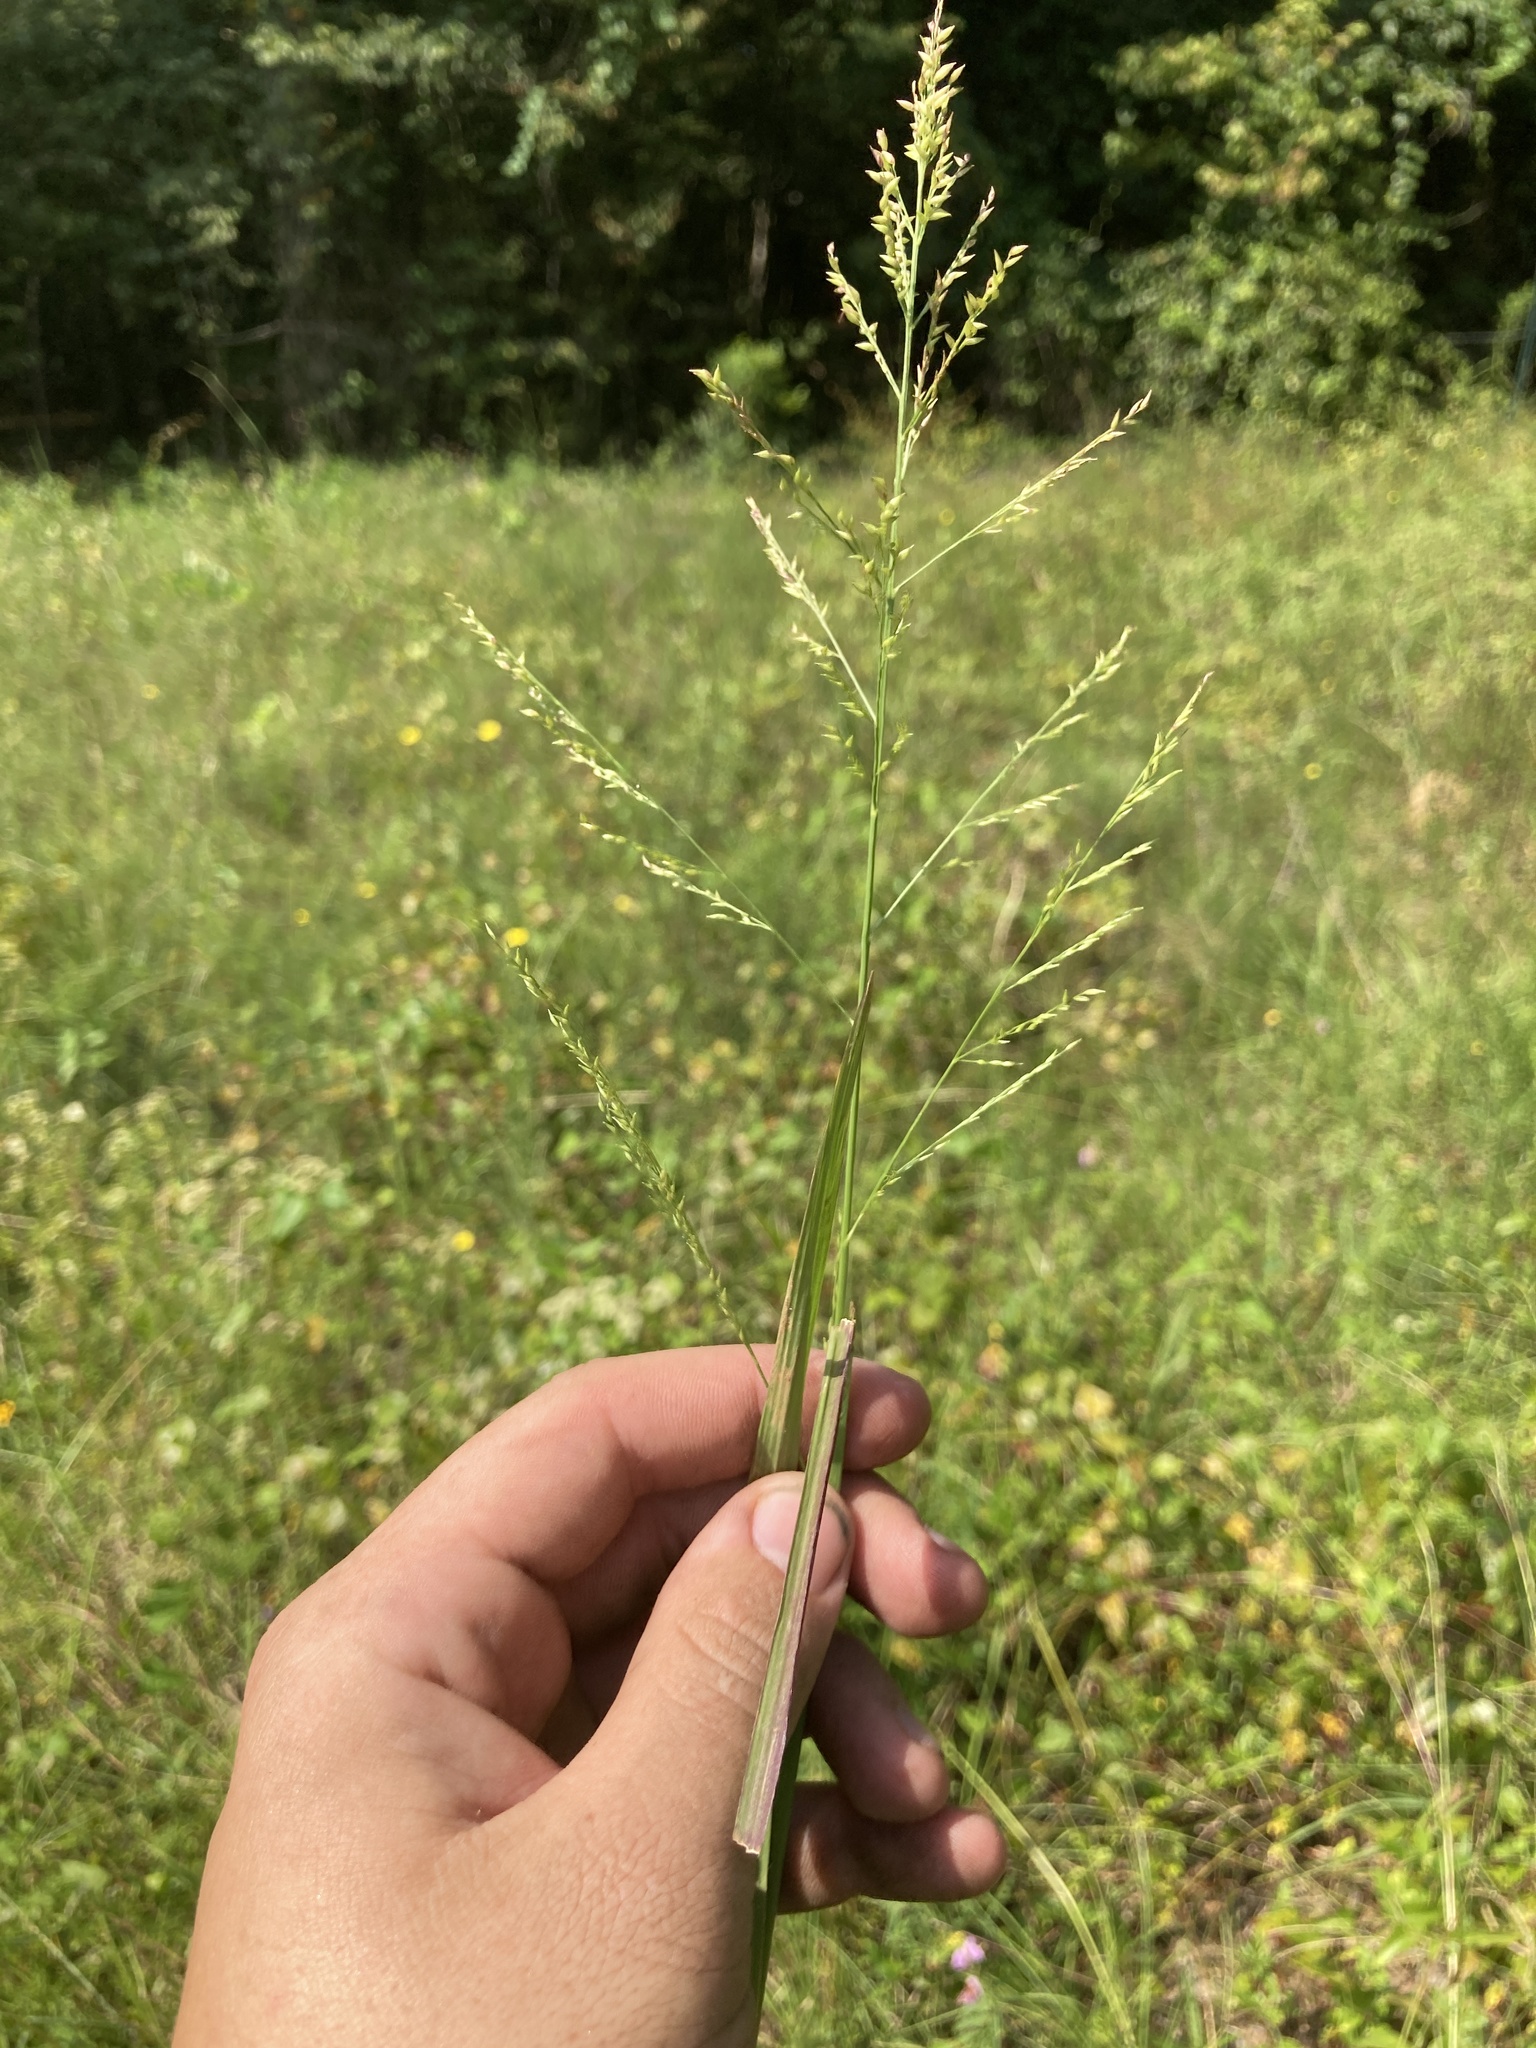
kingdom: Plantae
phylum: Tracheophyta
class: Liliopsida
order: Poales
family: Poaceae
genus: Coleataenia
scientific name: Coleataenia anceps
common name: Beaked panic grass
